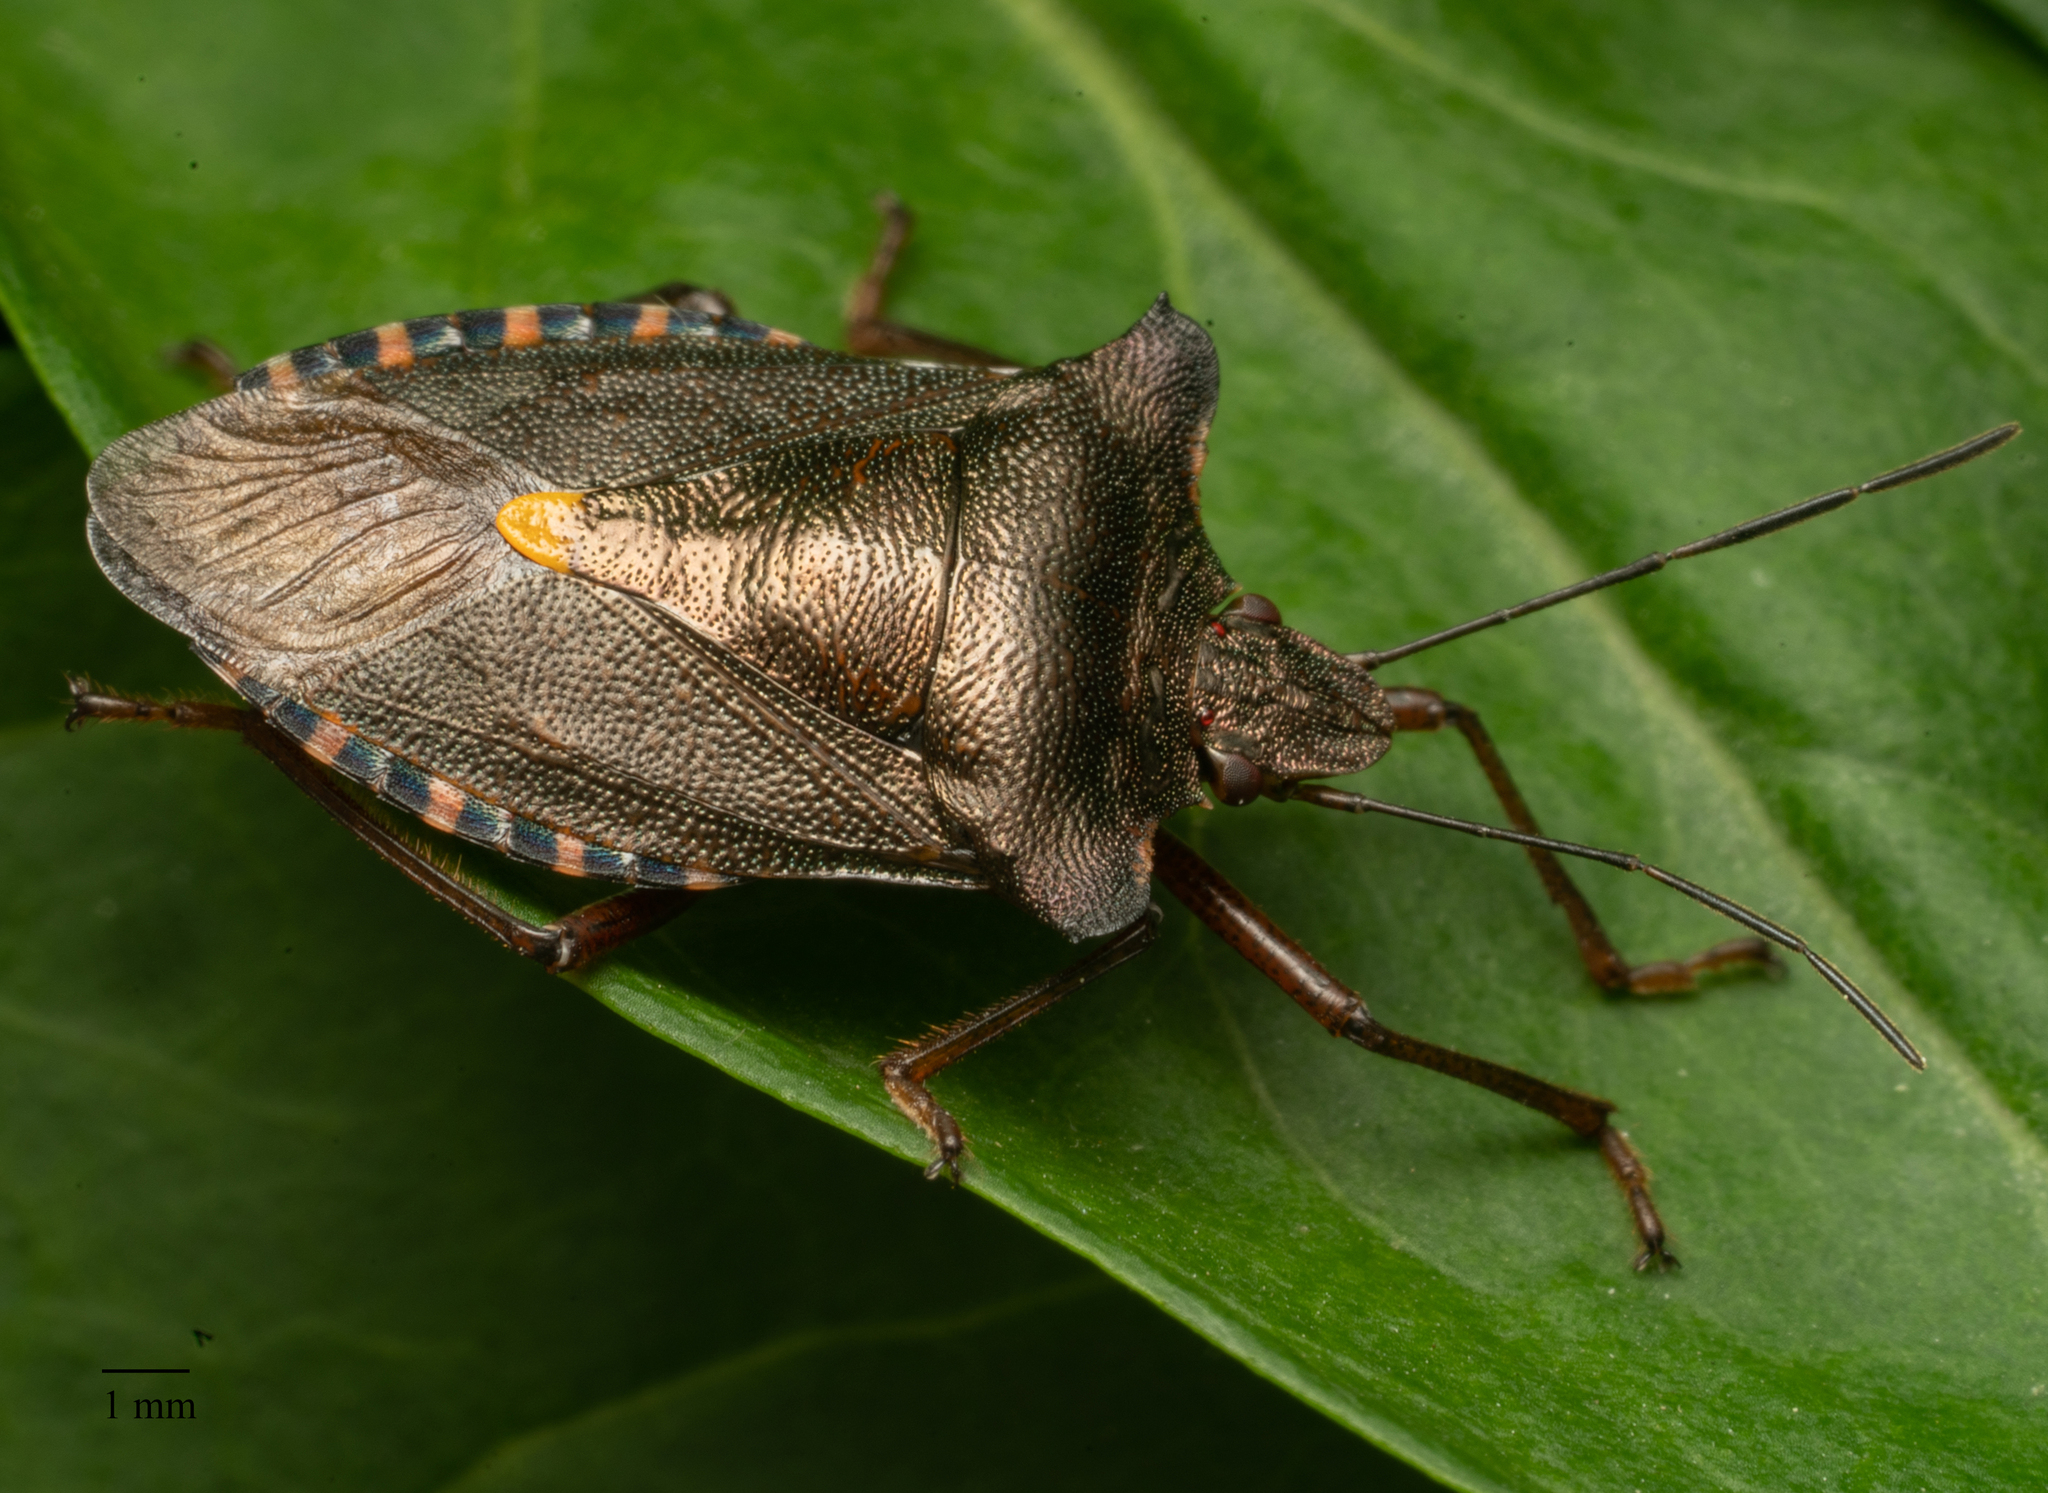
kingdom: Animalia
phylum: Arthropoda
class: Insecta
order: Hemiptera
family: Pentatomidae
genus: Pentatoma
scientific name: Pentatoma rufipes
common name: Forest bug
